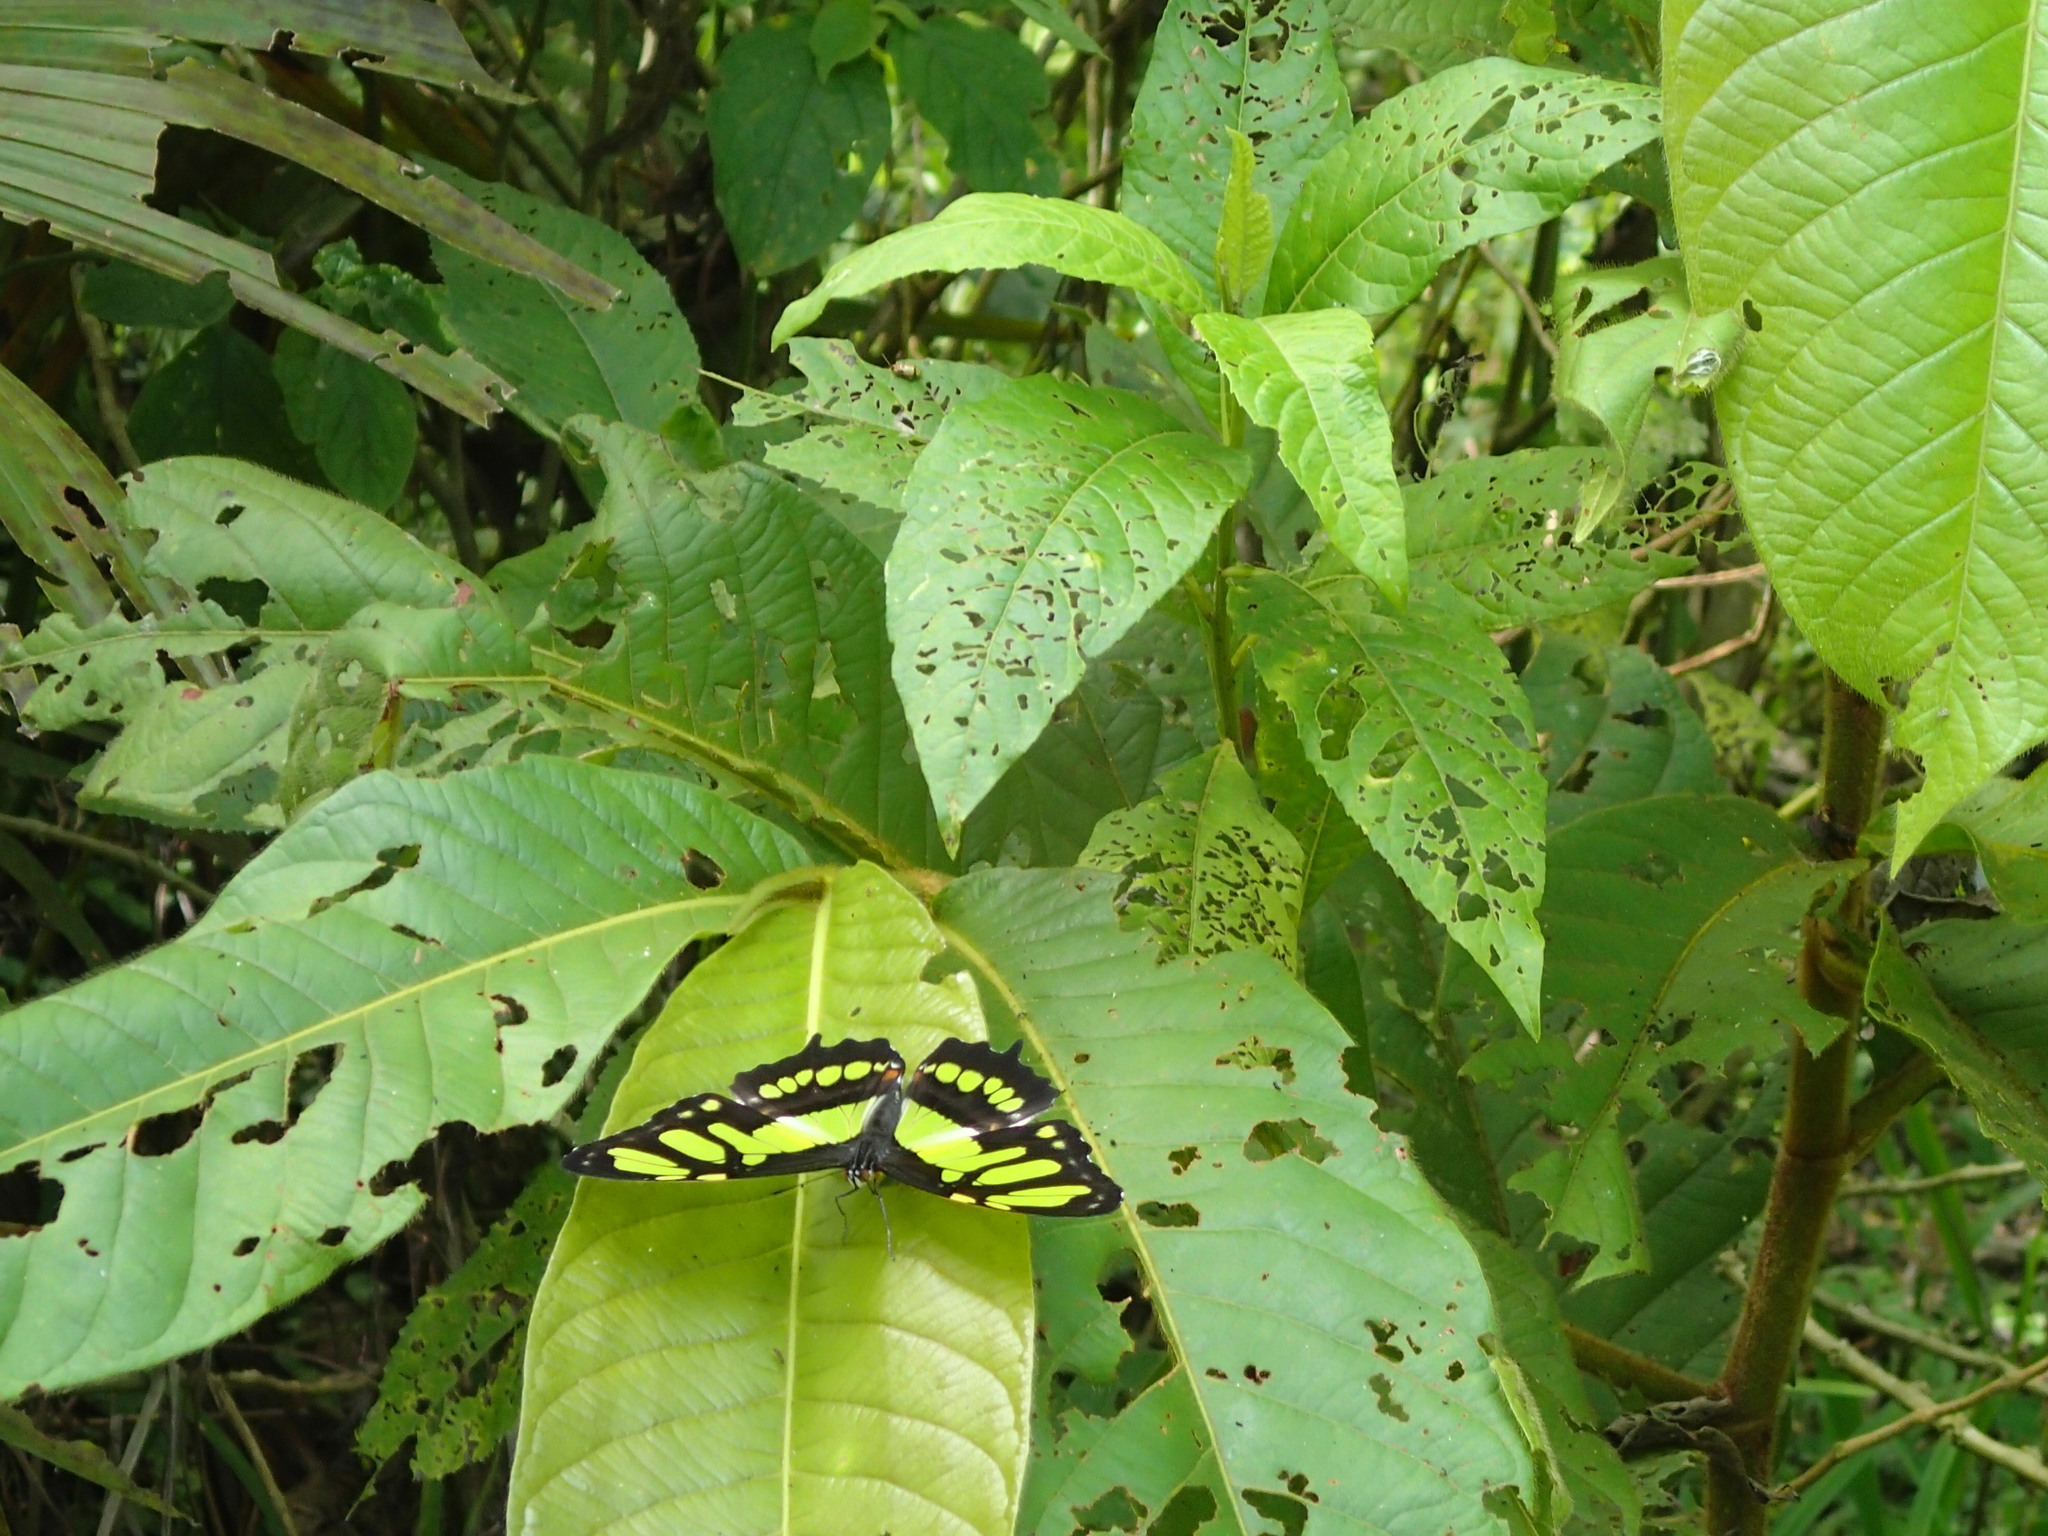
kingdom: Animalia
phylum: Arthropoda
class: Insecta
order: Lepidoptera
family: Nymphalidae
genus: Siproeta
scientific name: Siproeta stelenes
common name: Malachite
